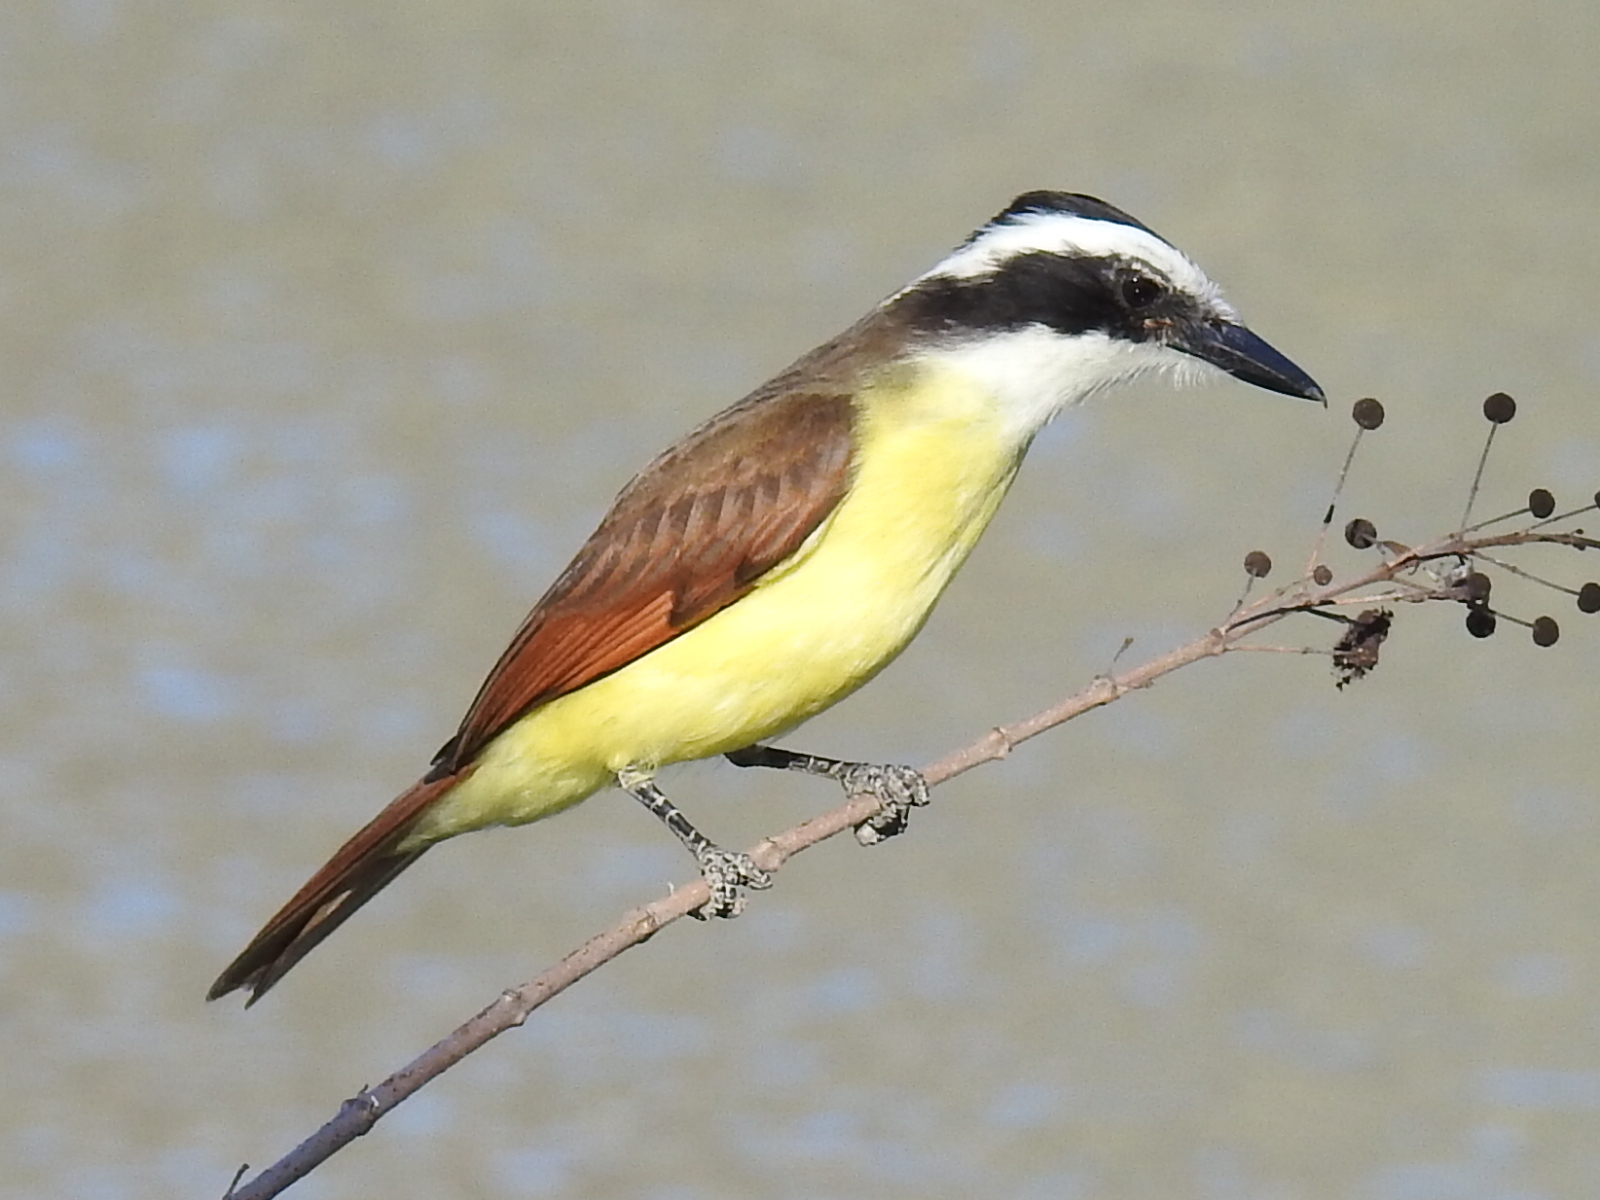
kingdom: Animalia
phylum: Chordata
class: Aves
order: Passeriformes
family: Tyrannidae
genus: Pitangus
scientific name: Pitangus sulphuratus
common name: Great kiskadee
